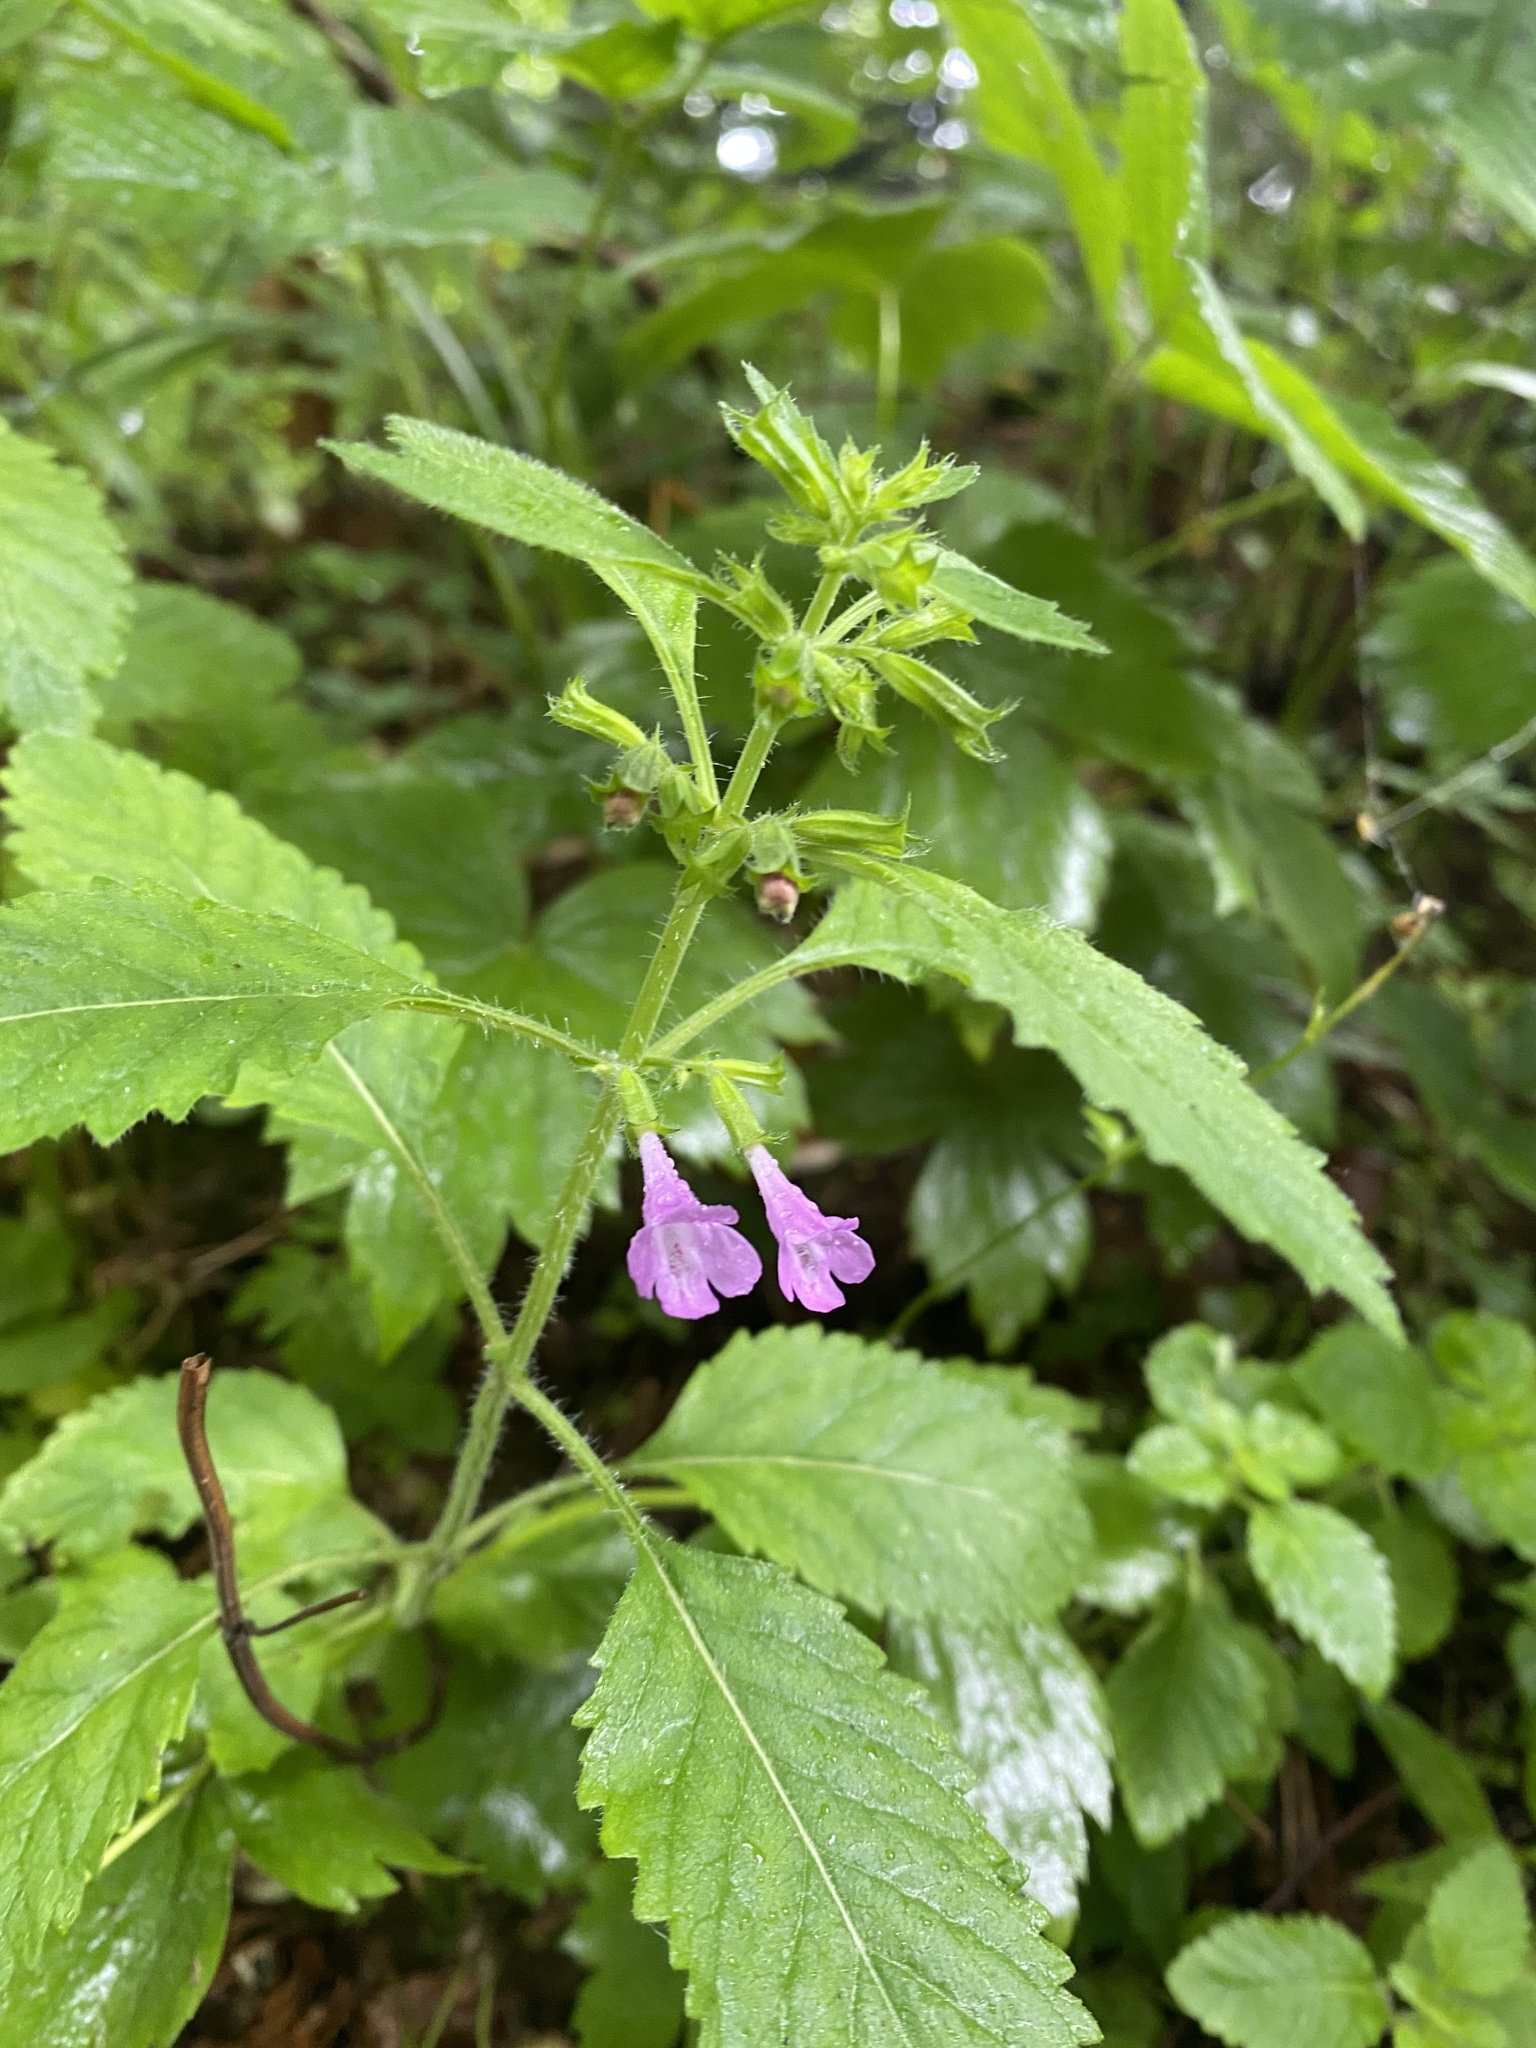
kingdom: Plantae
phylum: Tracheophyta
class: Magnoliopsida
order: Lamiales
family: Lamiaceae
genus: Clinopodium
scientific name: Clinopodium grandiflorum
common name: Greater calamint
